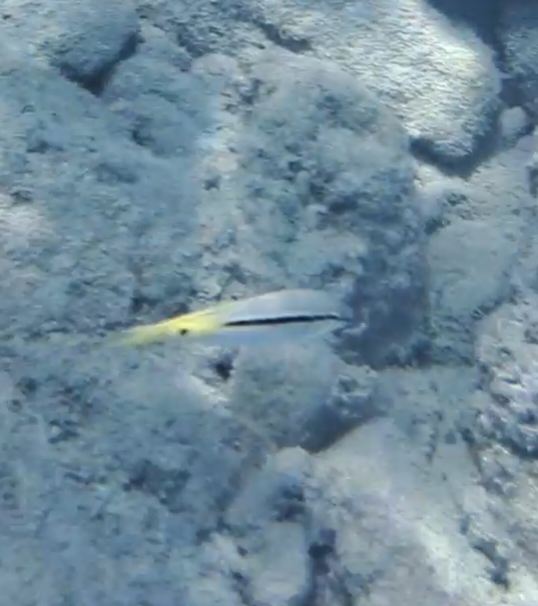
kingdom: Animalia
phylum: Chordata
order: Perciformes
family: Mullidae
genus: Parupeneus
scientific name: Parupeneus forsskali
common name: Red sea goatfish
